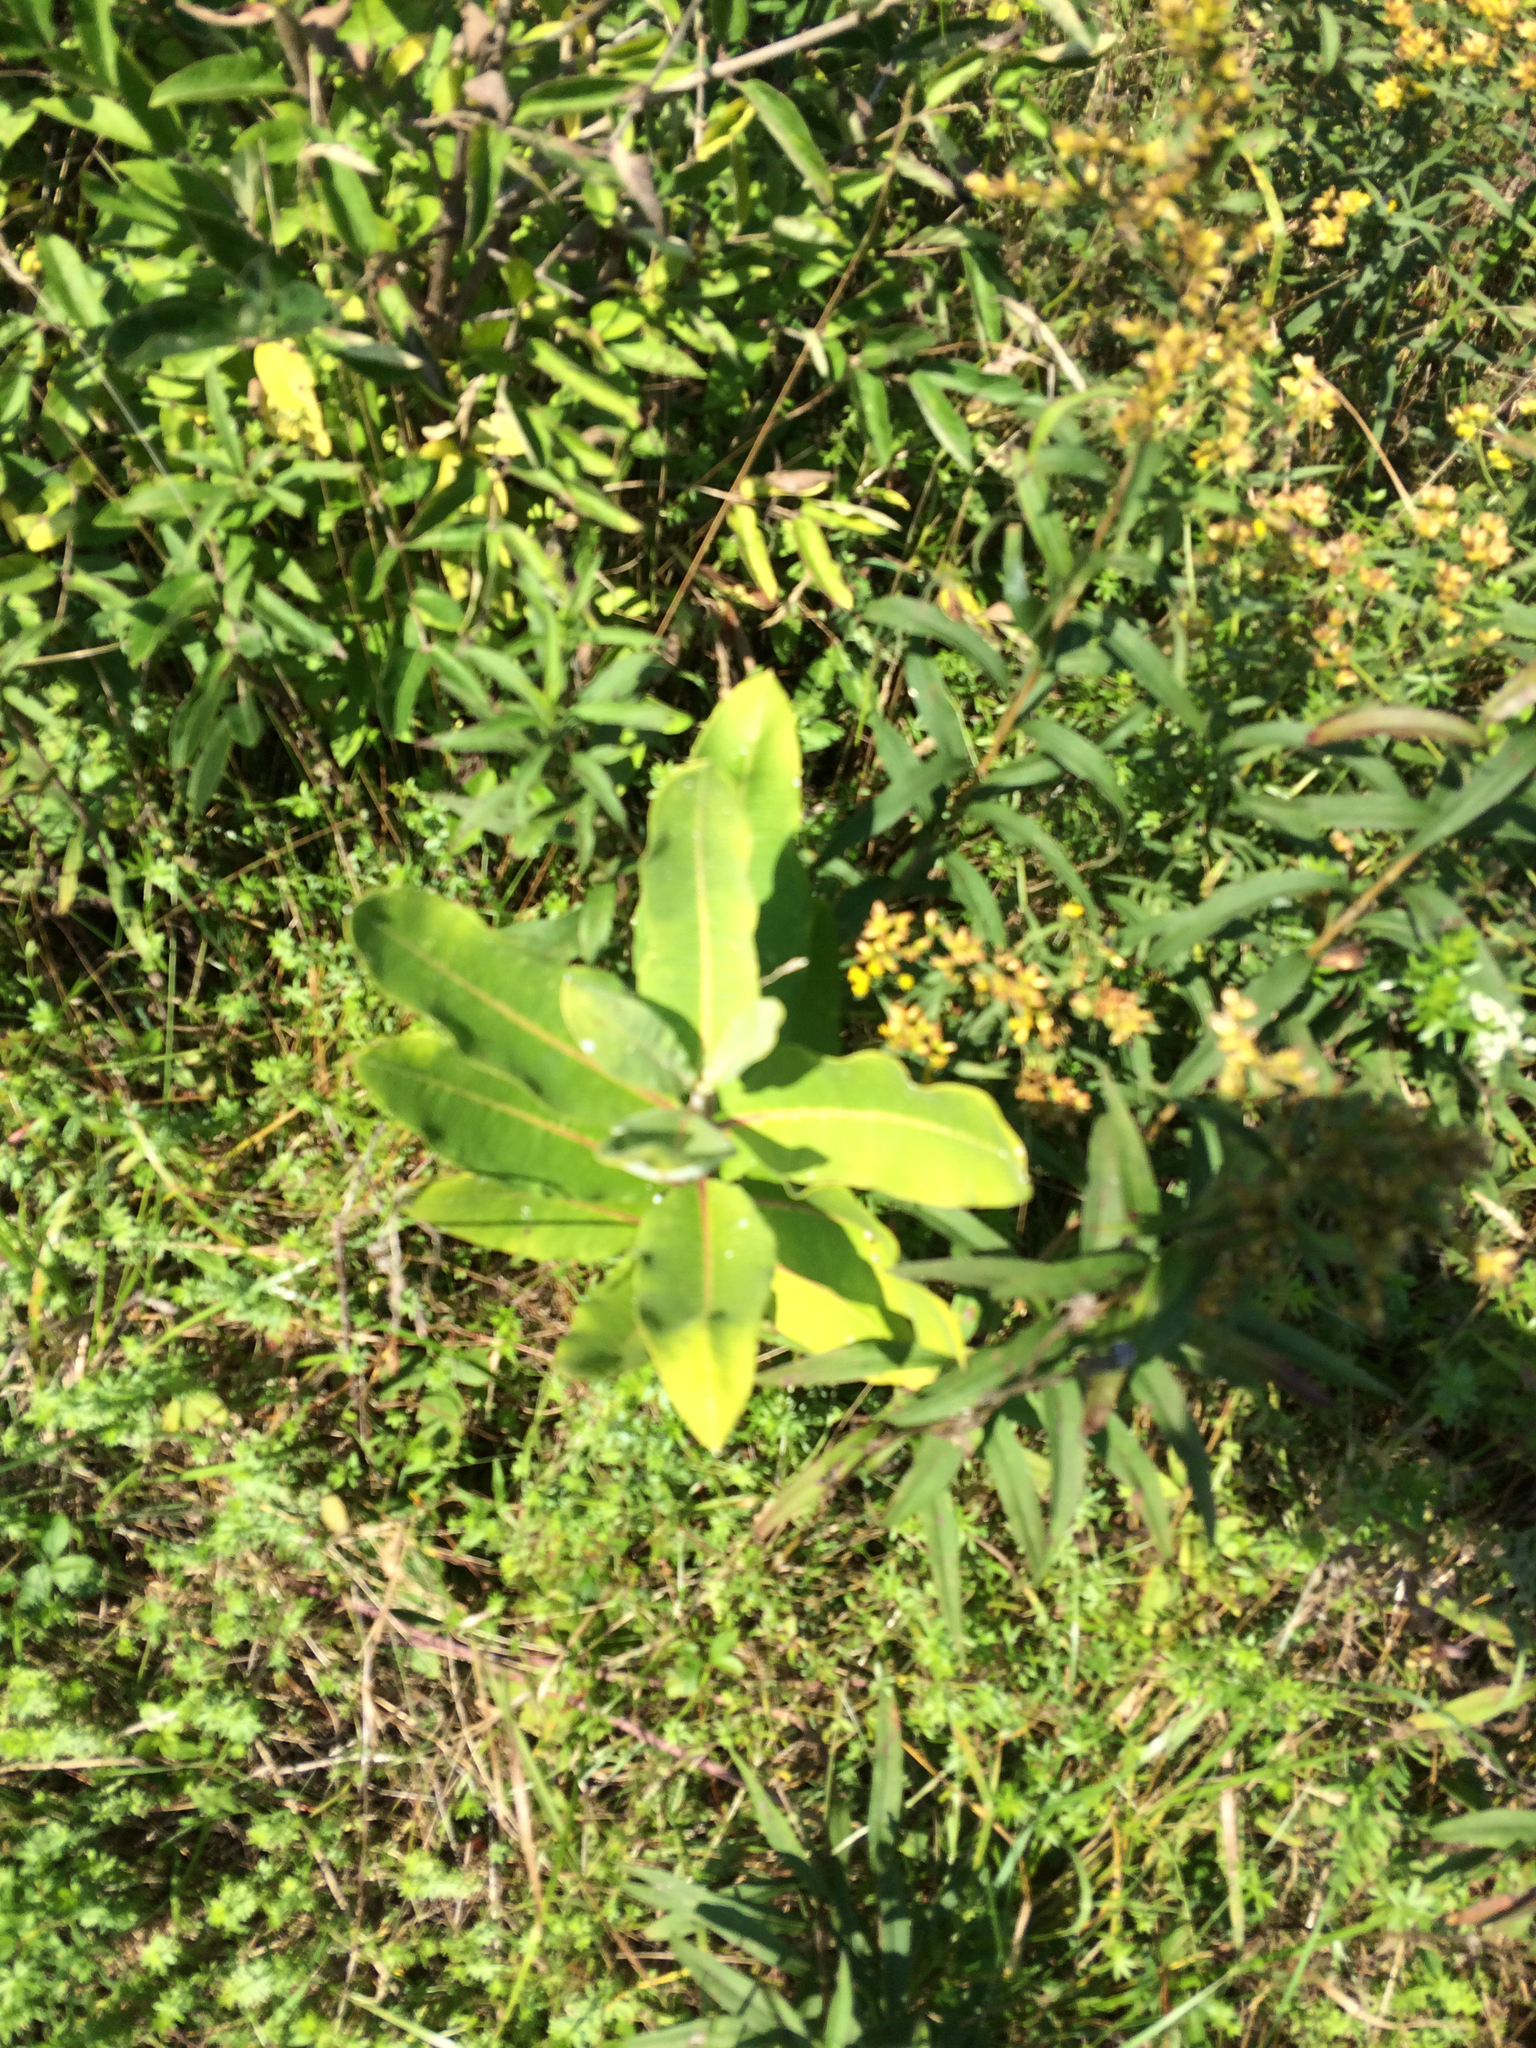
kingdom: Plantae
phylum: Tracheophyta
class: Magnoliopsida
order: Gentianales
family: Apocynaceae
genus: Asclepias
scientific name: Asclepias syriaca
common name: Common milkweed
